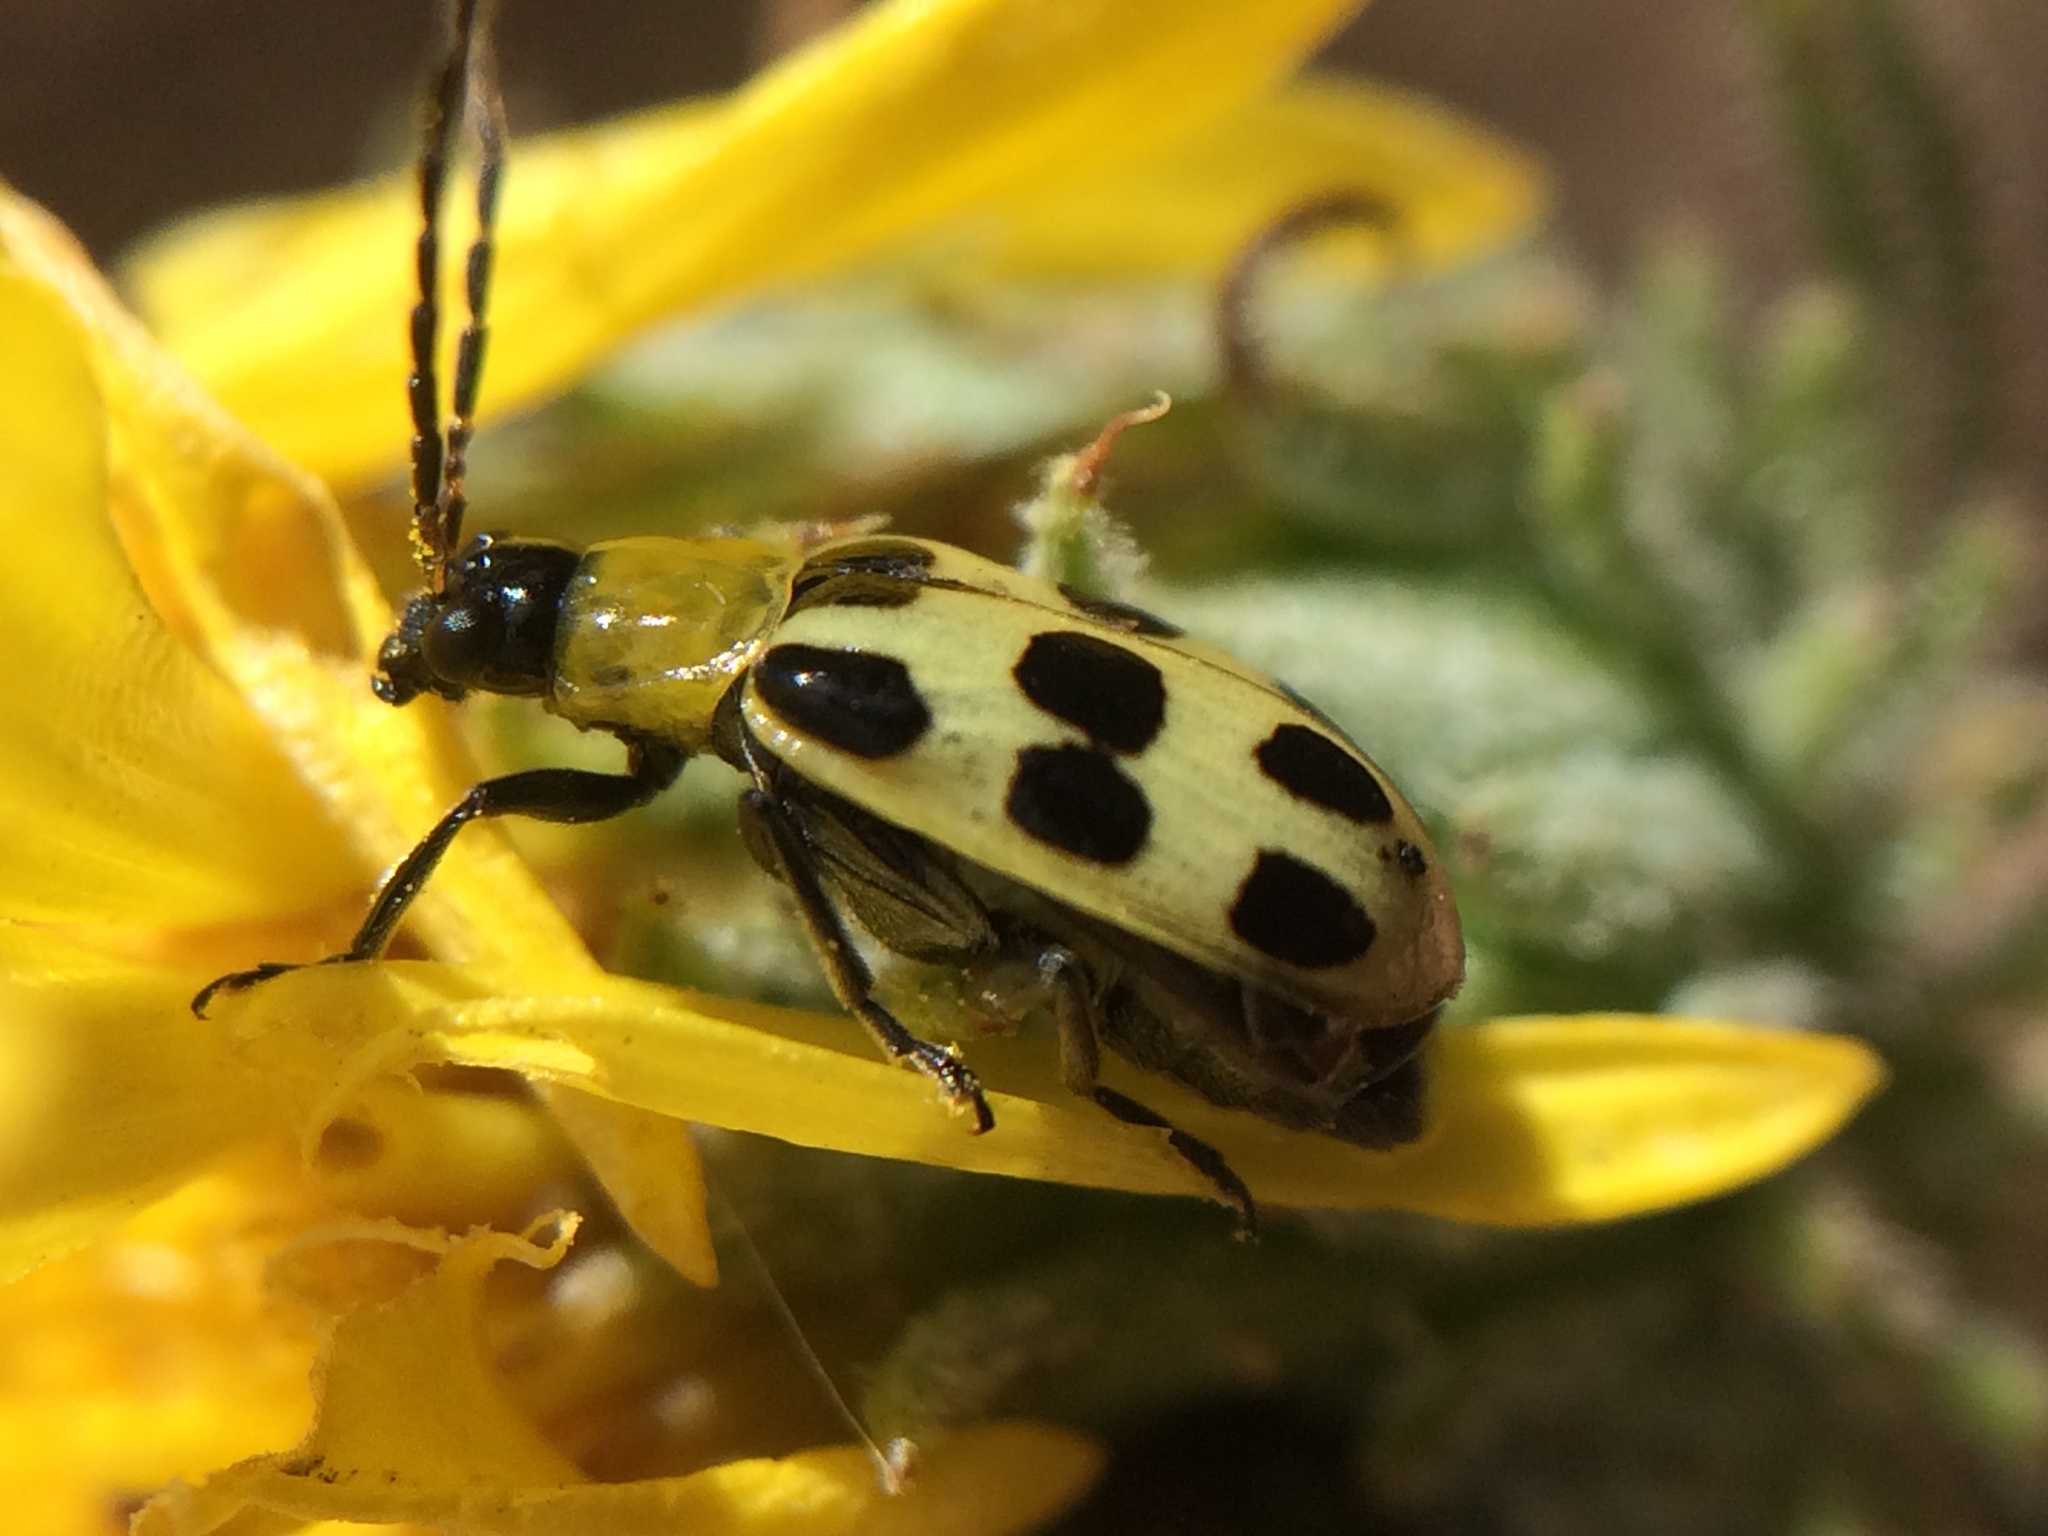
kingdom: Animalia
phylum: Arthropoda
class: Insecta
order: Coleoptera
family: Chrysomelidae
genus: Diabrotica
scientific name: Diabrotica undecimpunctata
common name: Spotted cucumber beetle
